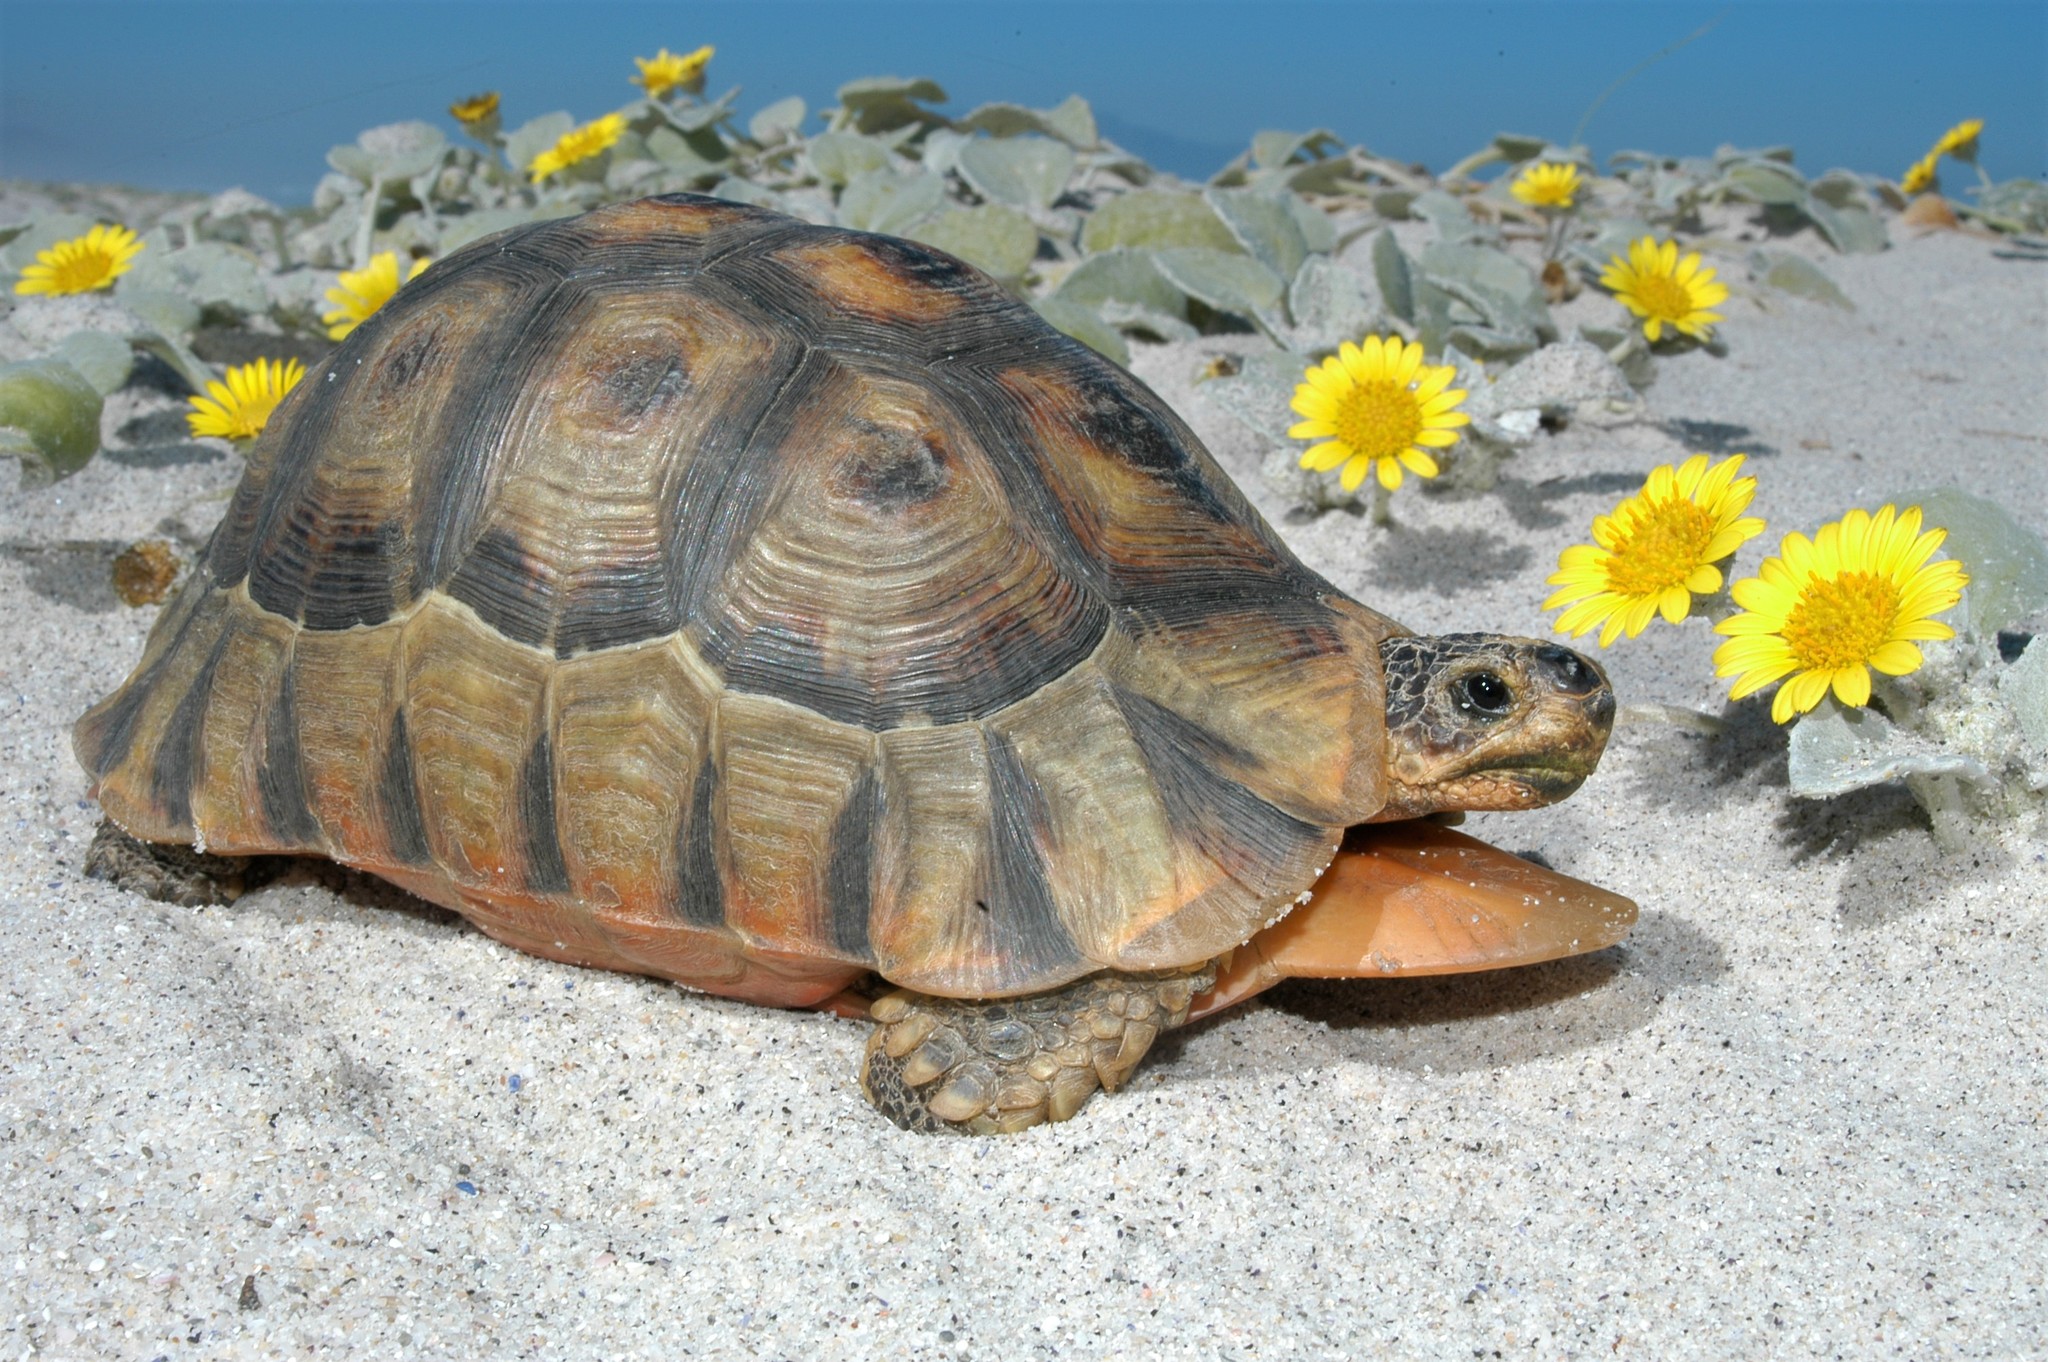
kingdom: Animalia
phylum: Chordata
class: Testudines
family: Testudinidae
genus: Chersina
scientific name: Chersina angulata
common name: South african bowsprit tortoise
